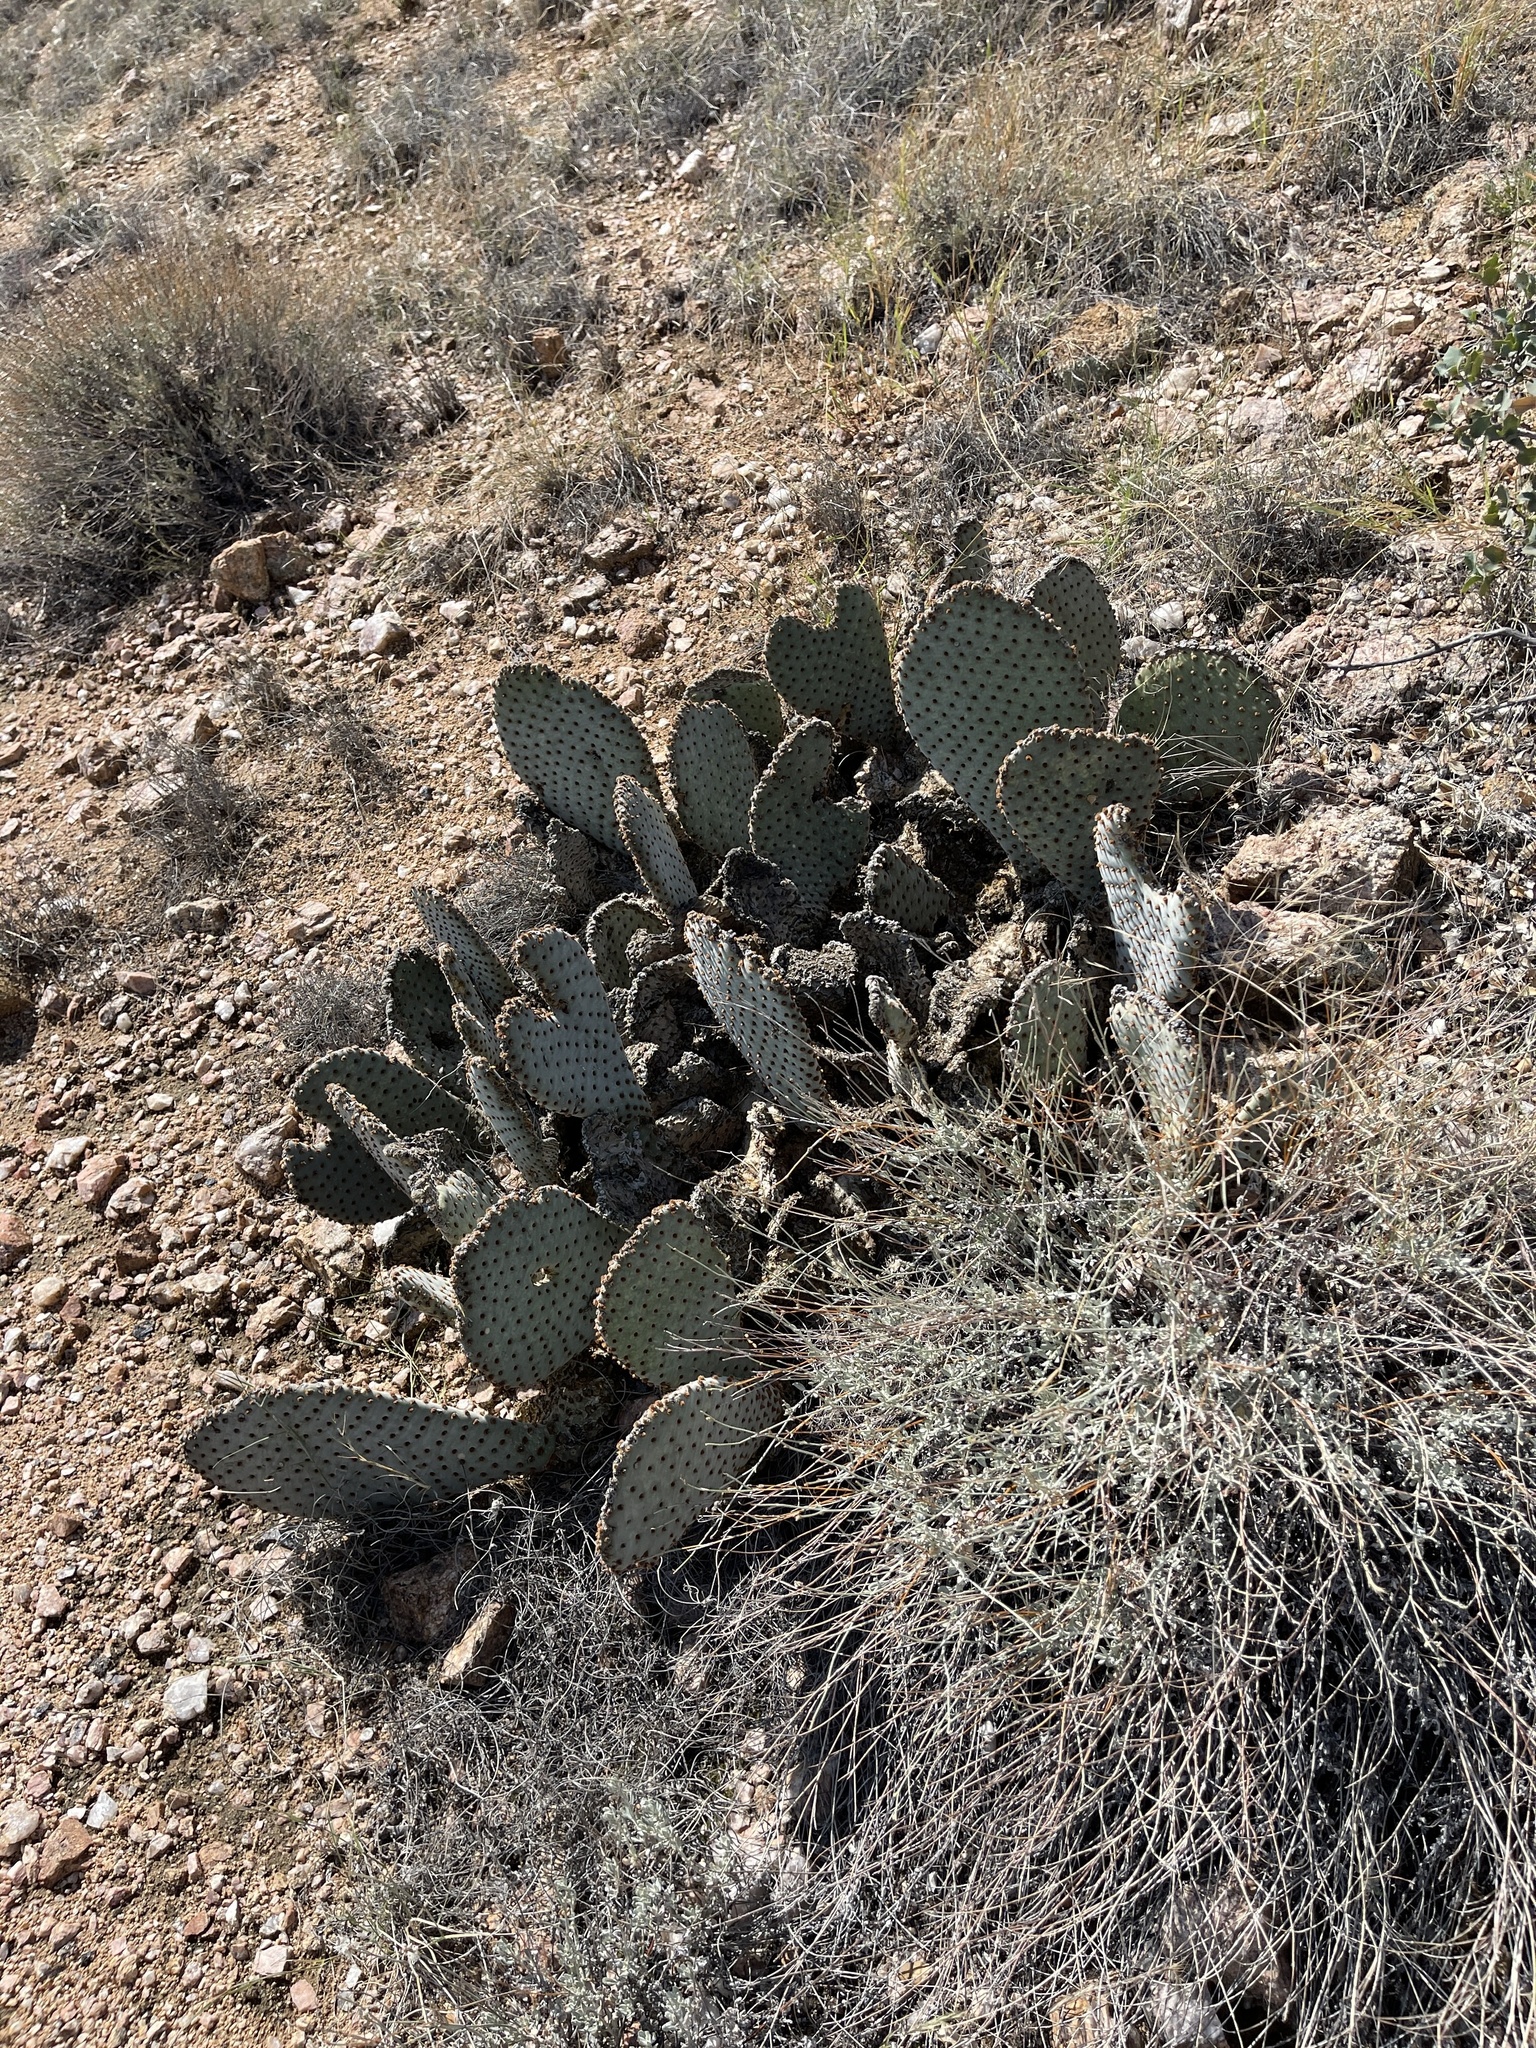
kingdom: Plantae
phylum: Tracheophyta
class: Magnoliopsida
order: Caryophyllales
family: Cactaceae
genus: Opuntia
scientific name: Opuntia basilaris
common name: Beavertail prickly-pear
